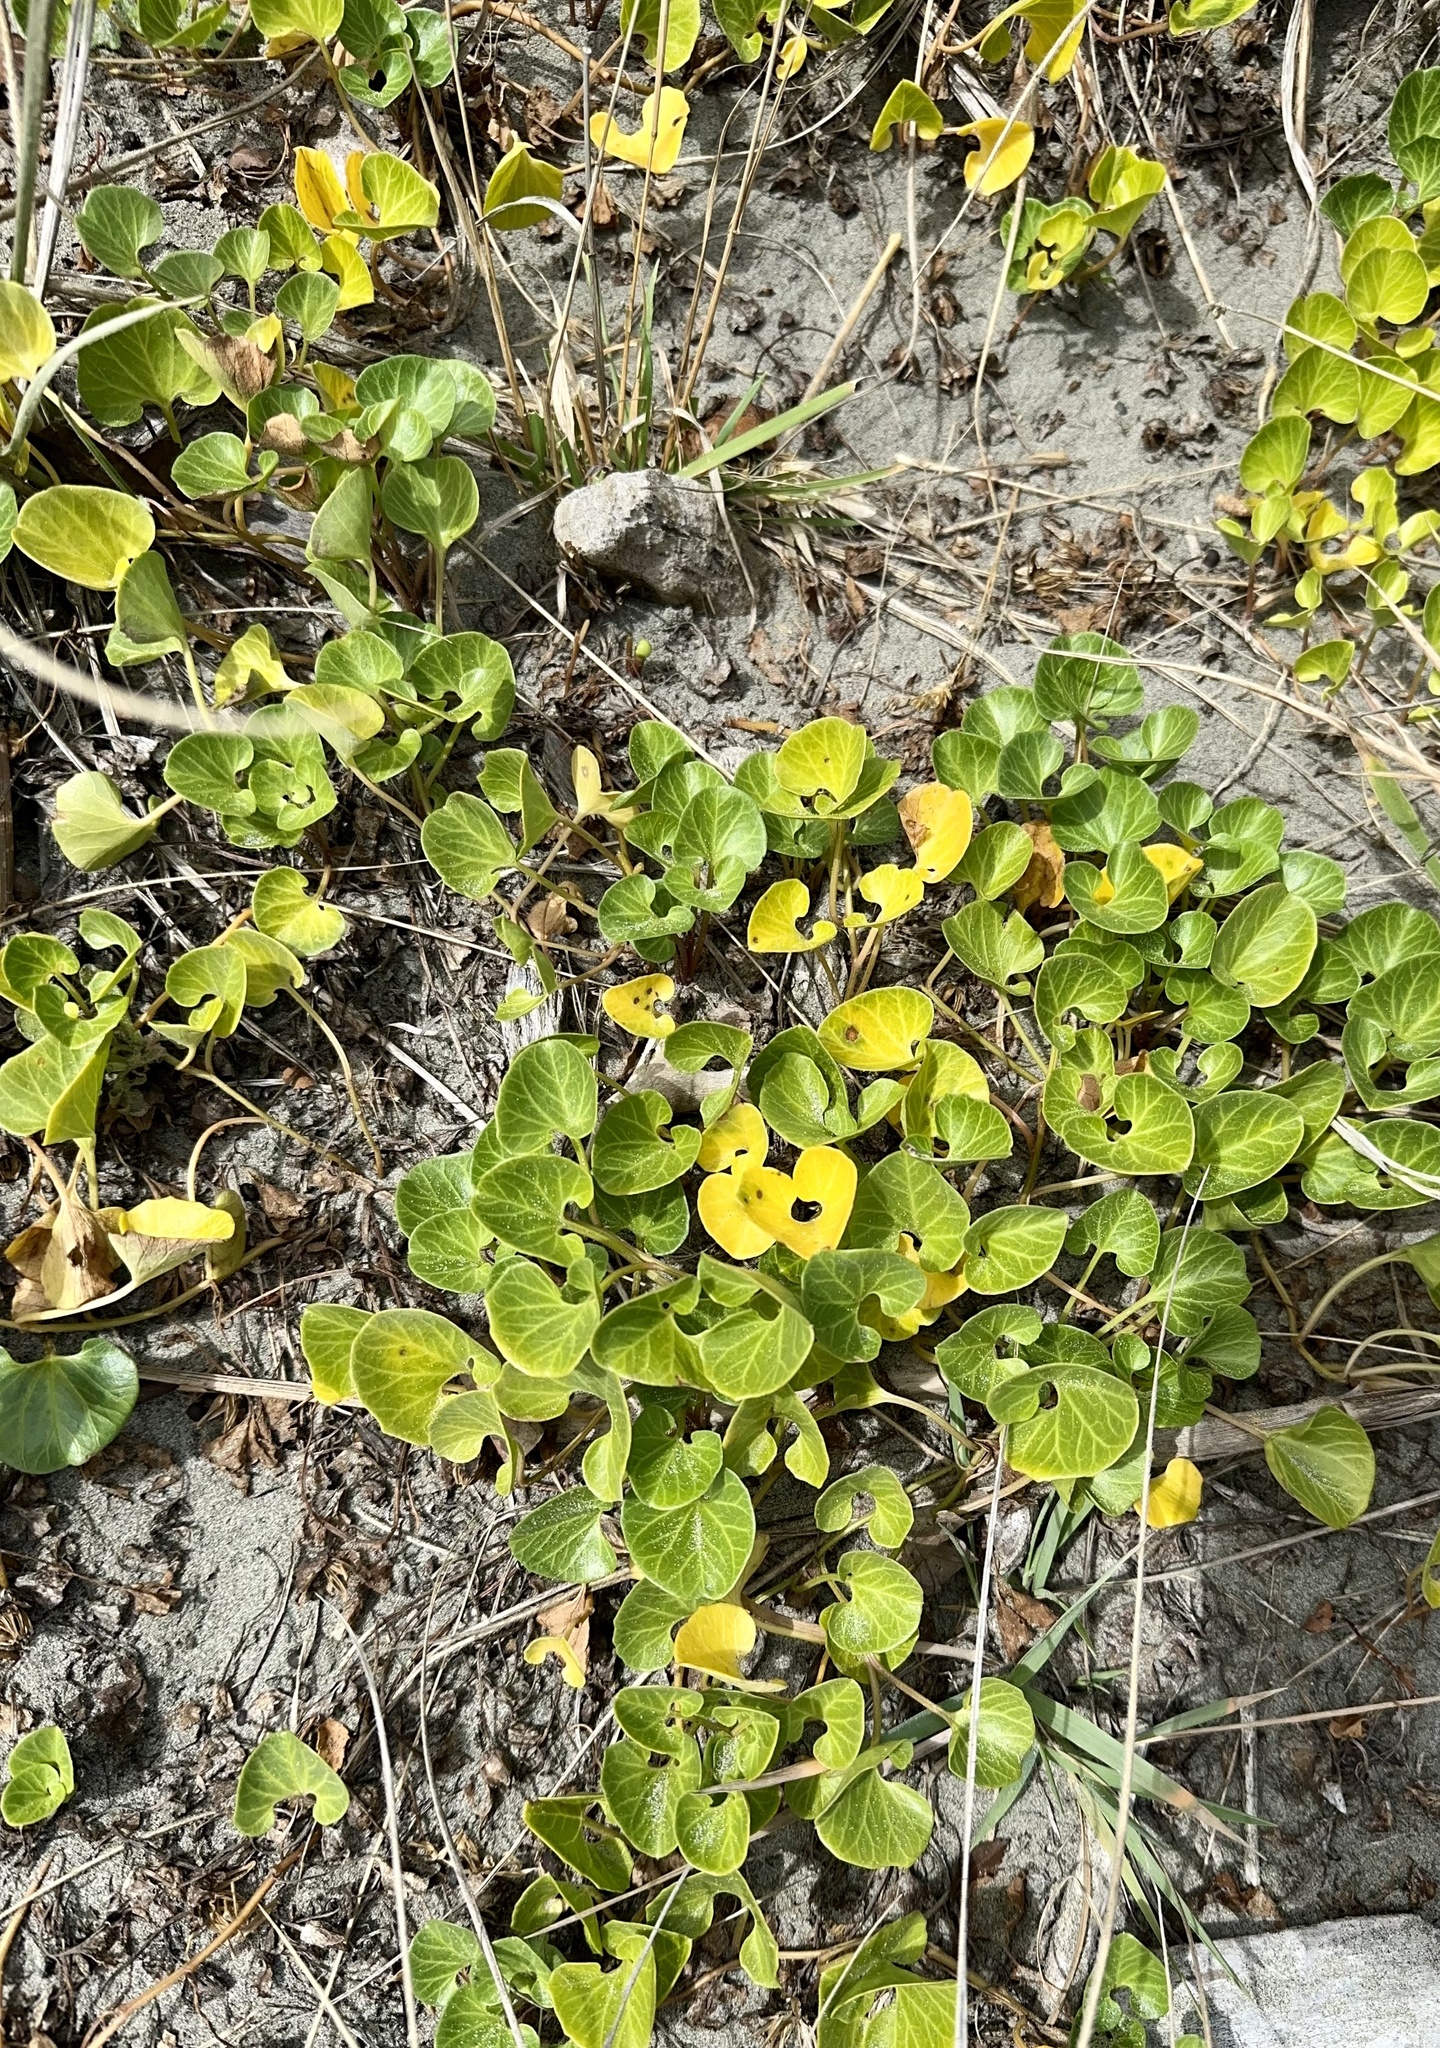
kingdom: Plantae
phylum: Tracheophyta
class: Magnoliopsida
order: Solanales
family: Convolvulaceae
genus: Calystegia
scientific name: Calystegia soldanella
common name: Sea bindweed
